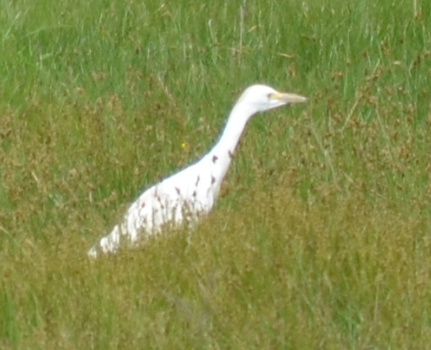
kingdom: Animalia
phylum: Chordata
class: Aves
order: Pelecaniformes
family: Ardeidae
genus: Bubulcus
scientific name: Bubulcus ibis
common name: Cattle egret
